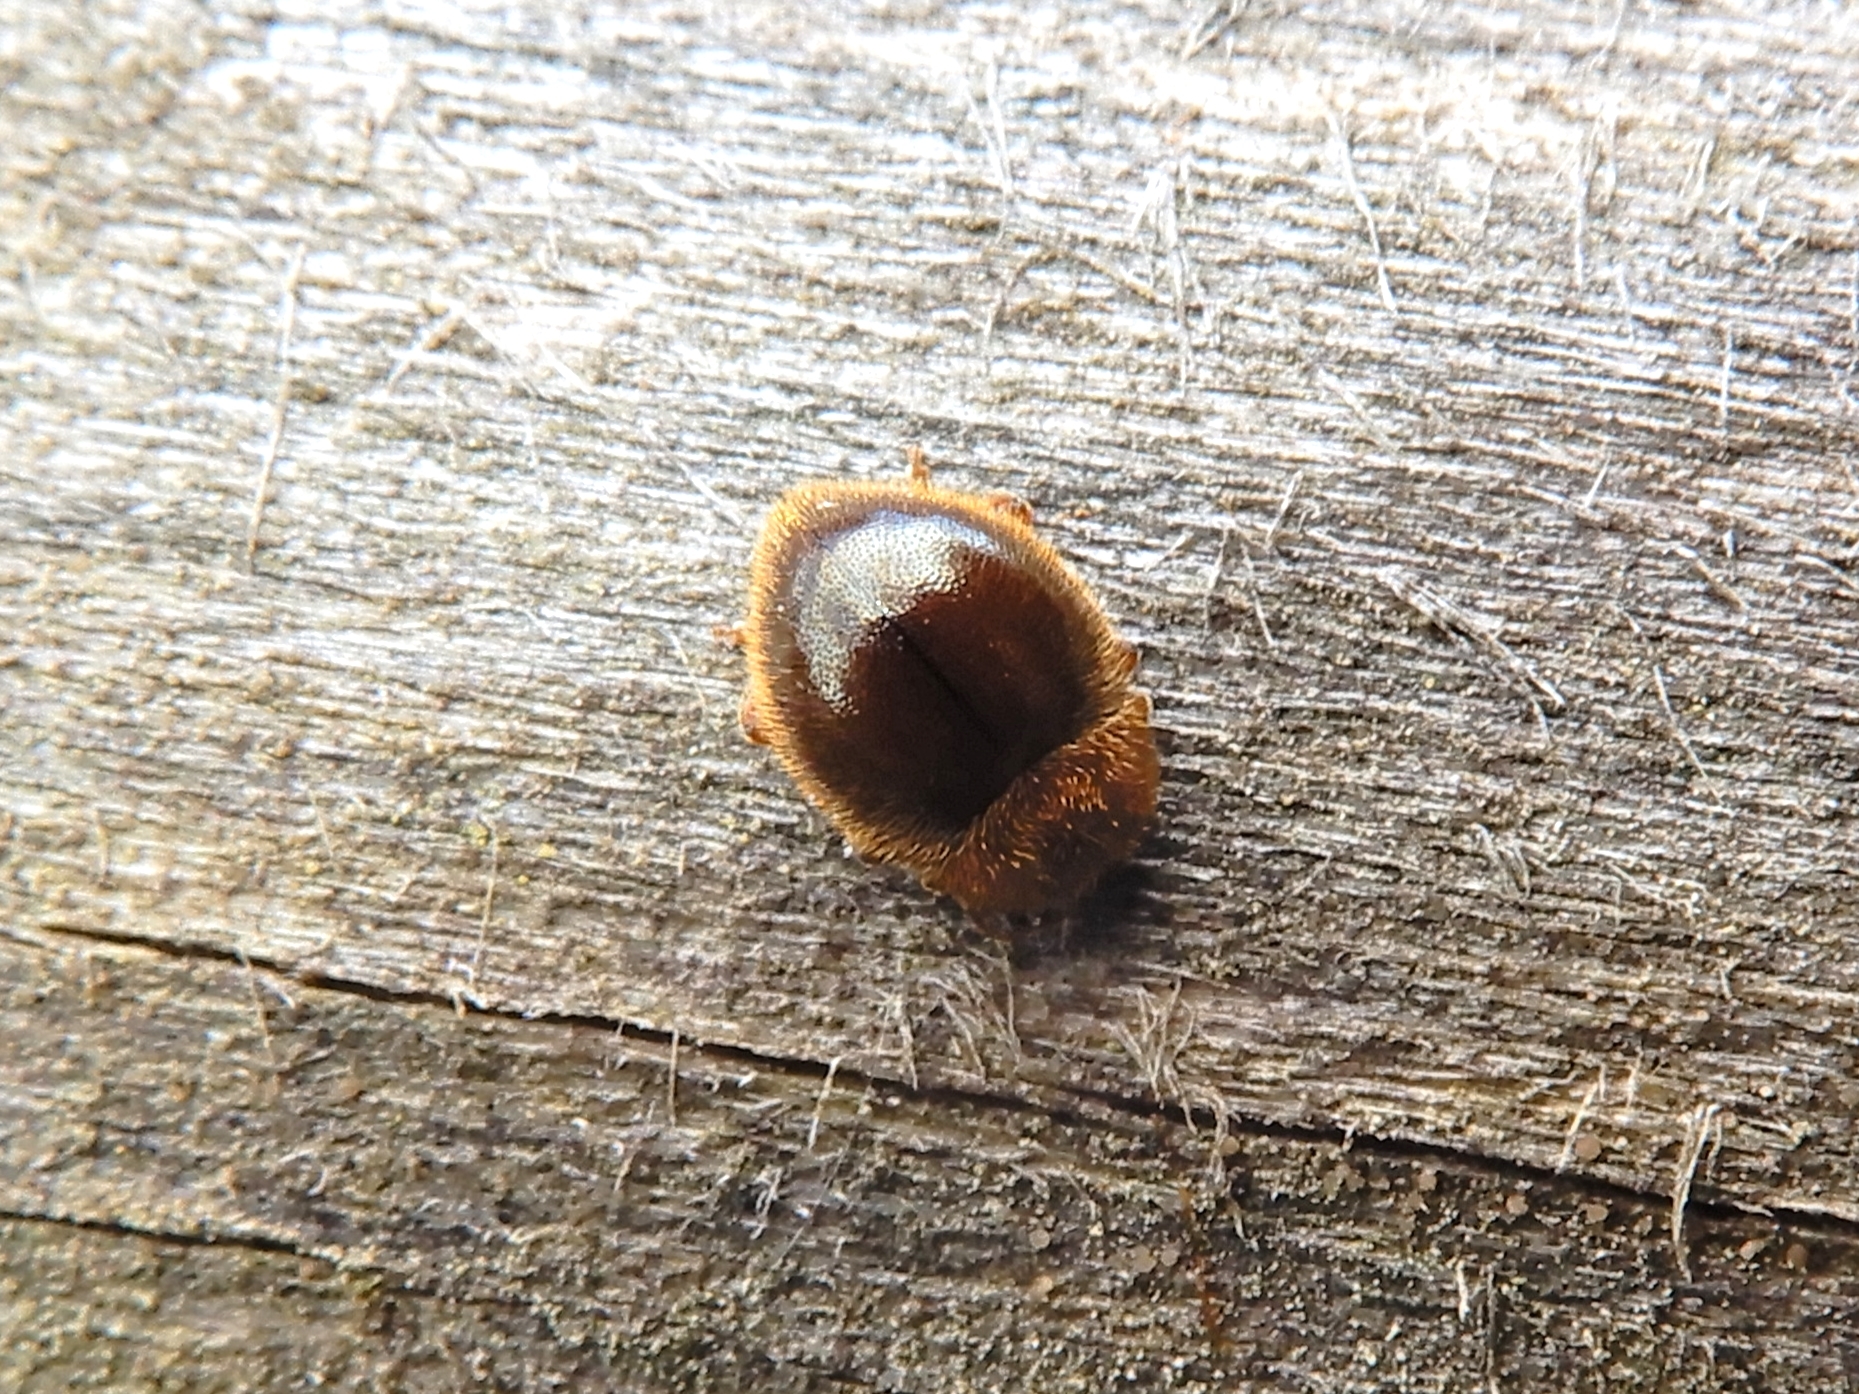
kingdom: Animalia
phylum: Arthropoda
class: Insecta
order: Coleoptera
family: Coccinellidae
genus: Adoxellus
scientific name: Adoxellus
